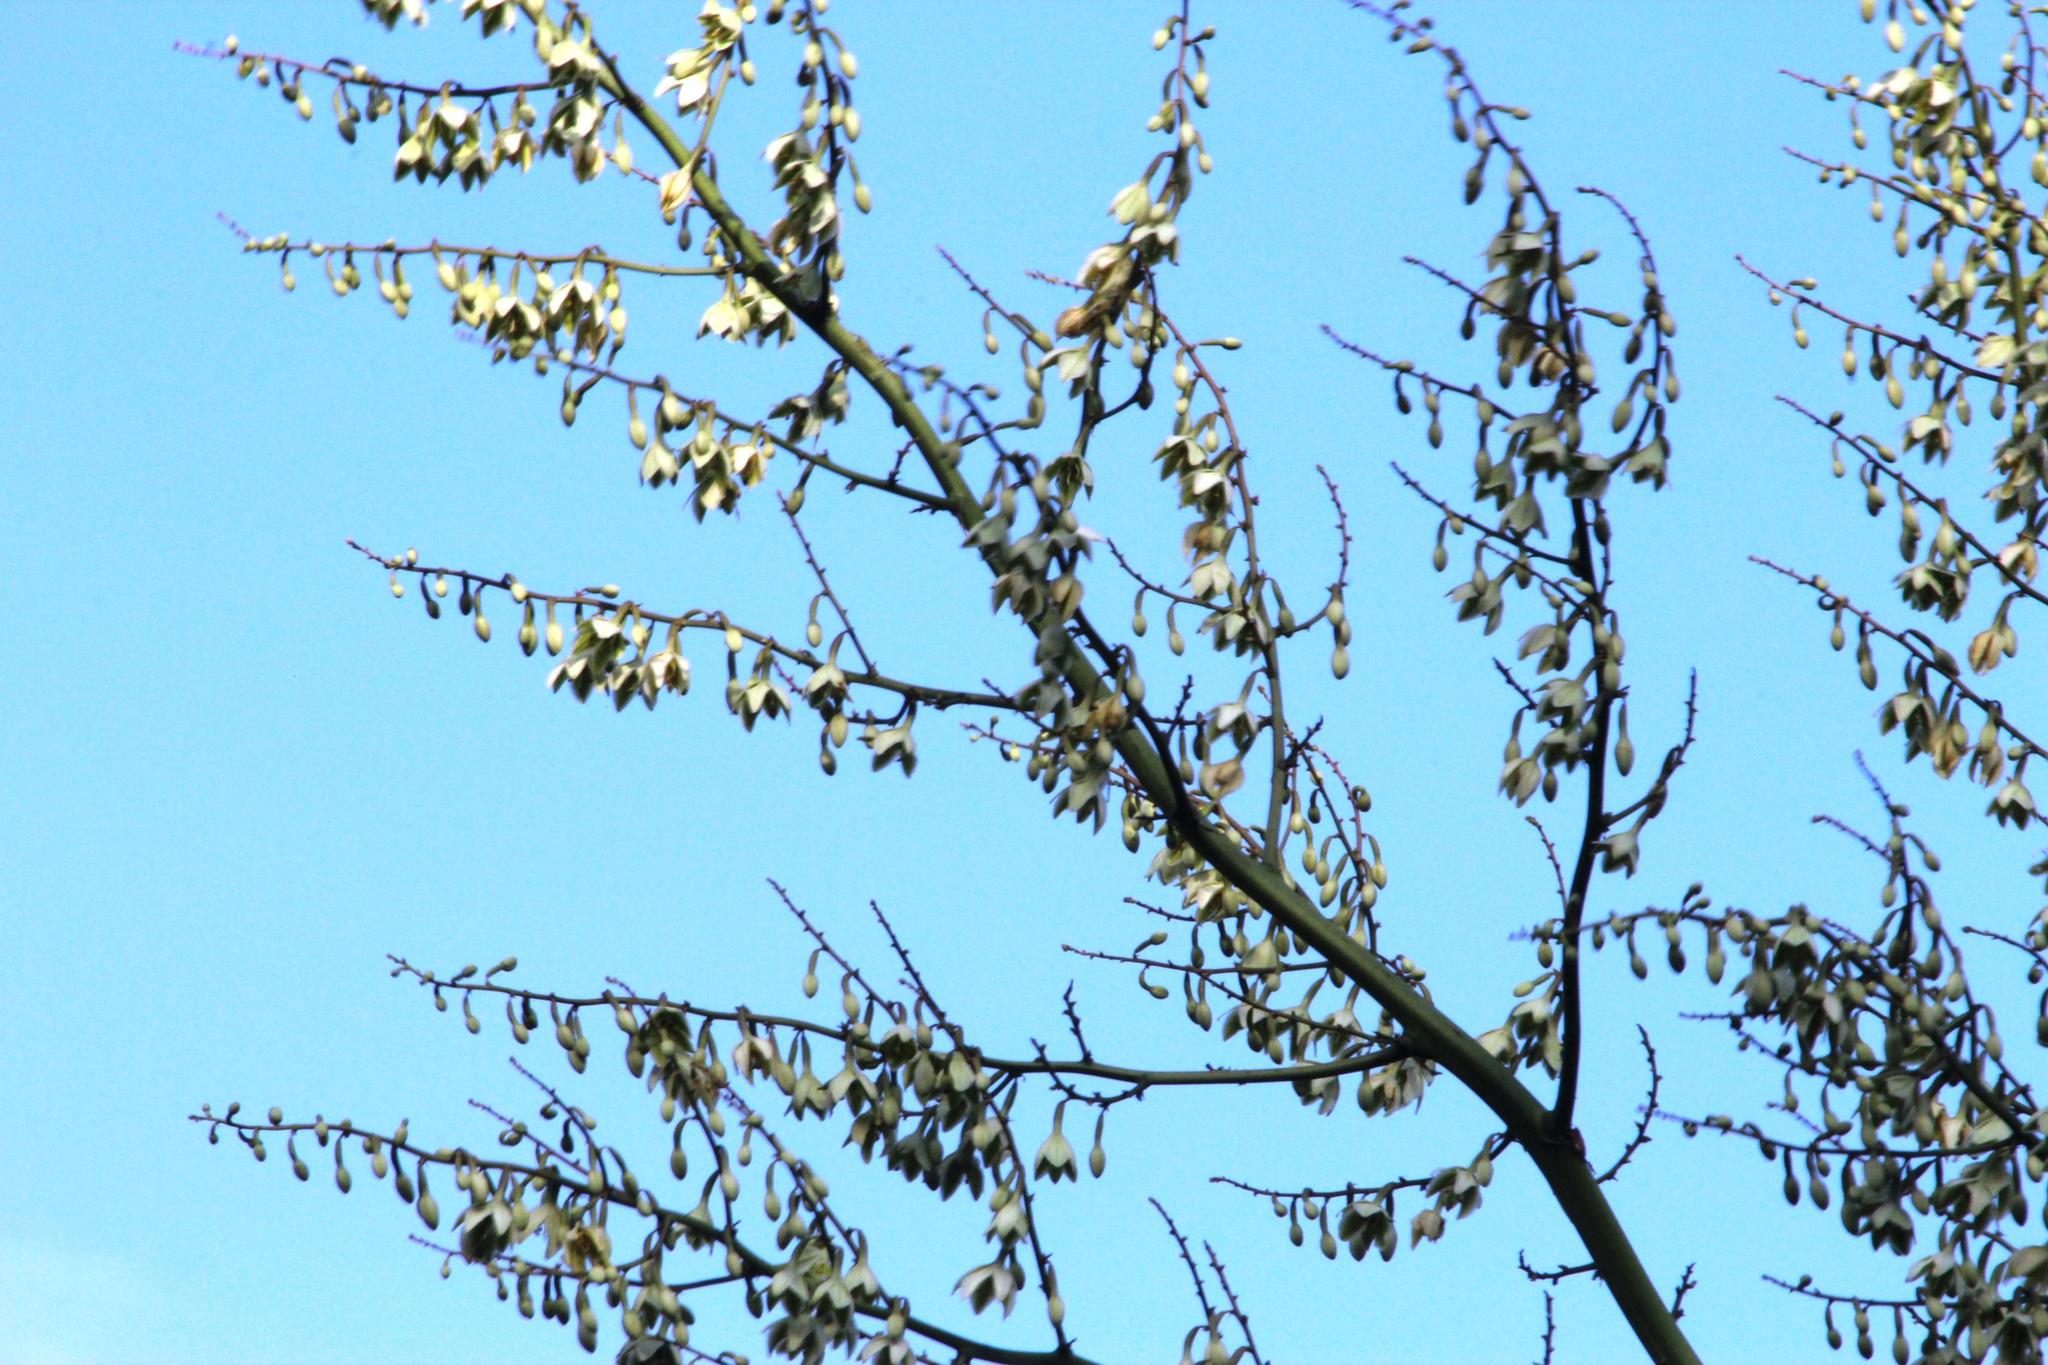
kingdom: Plantae
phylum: Tracheophyta
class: Liliopsida
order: Asparagales
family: Asparagaceae
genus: Furcraea
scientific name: Furcraea foetida
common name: Mauritius hemp
